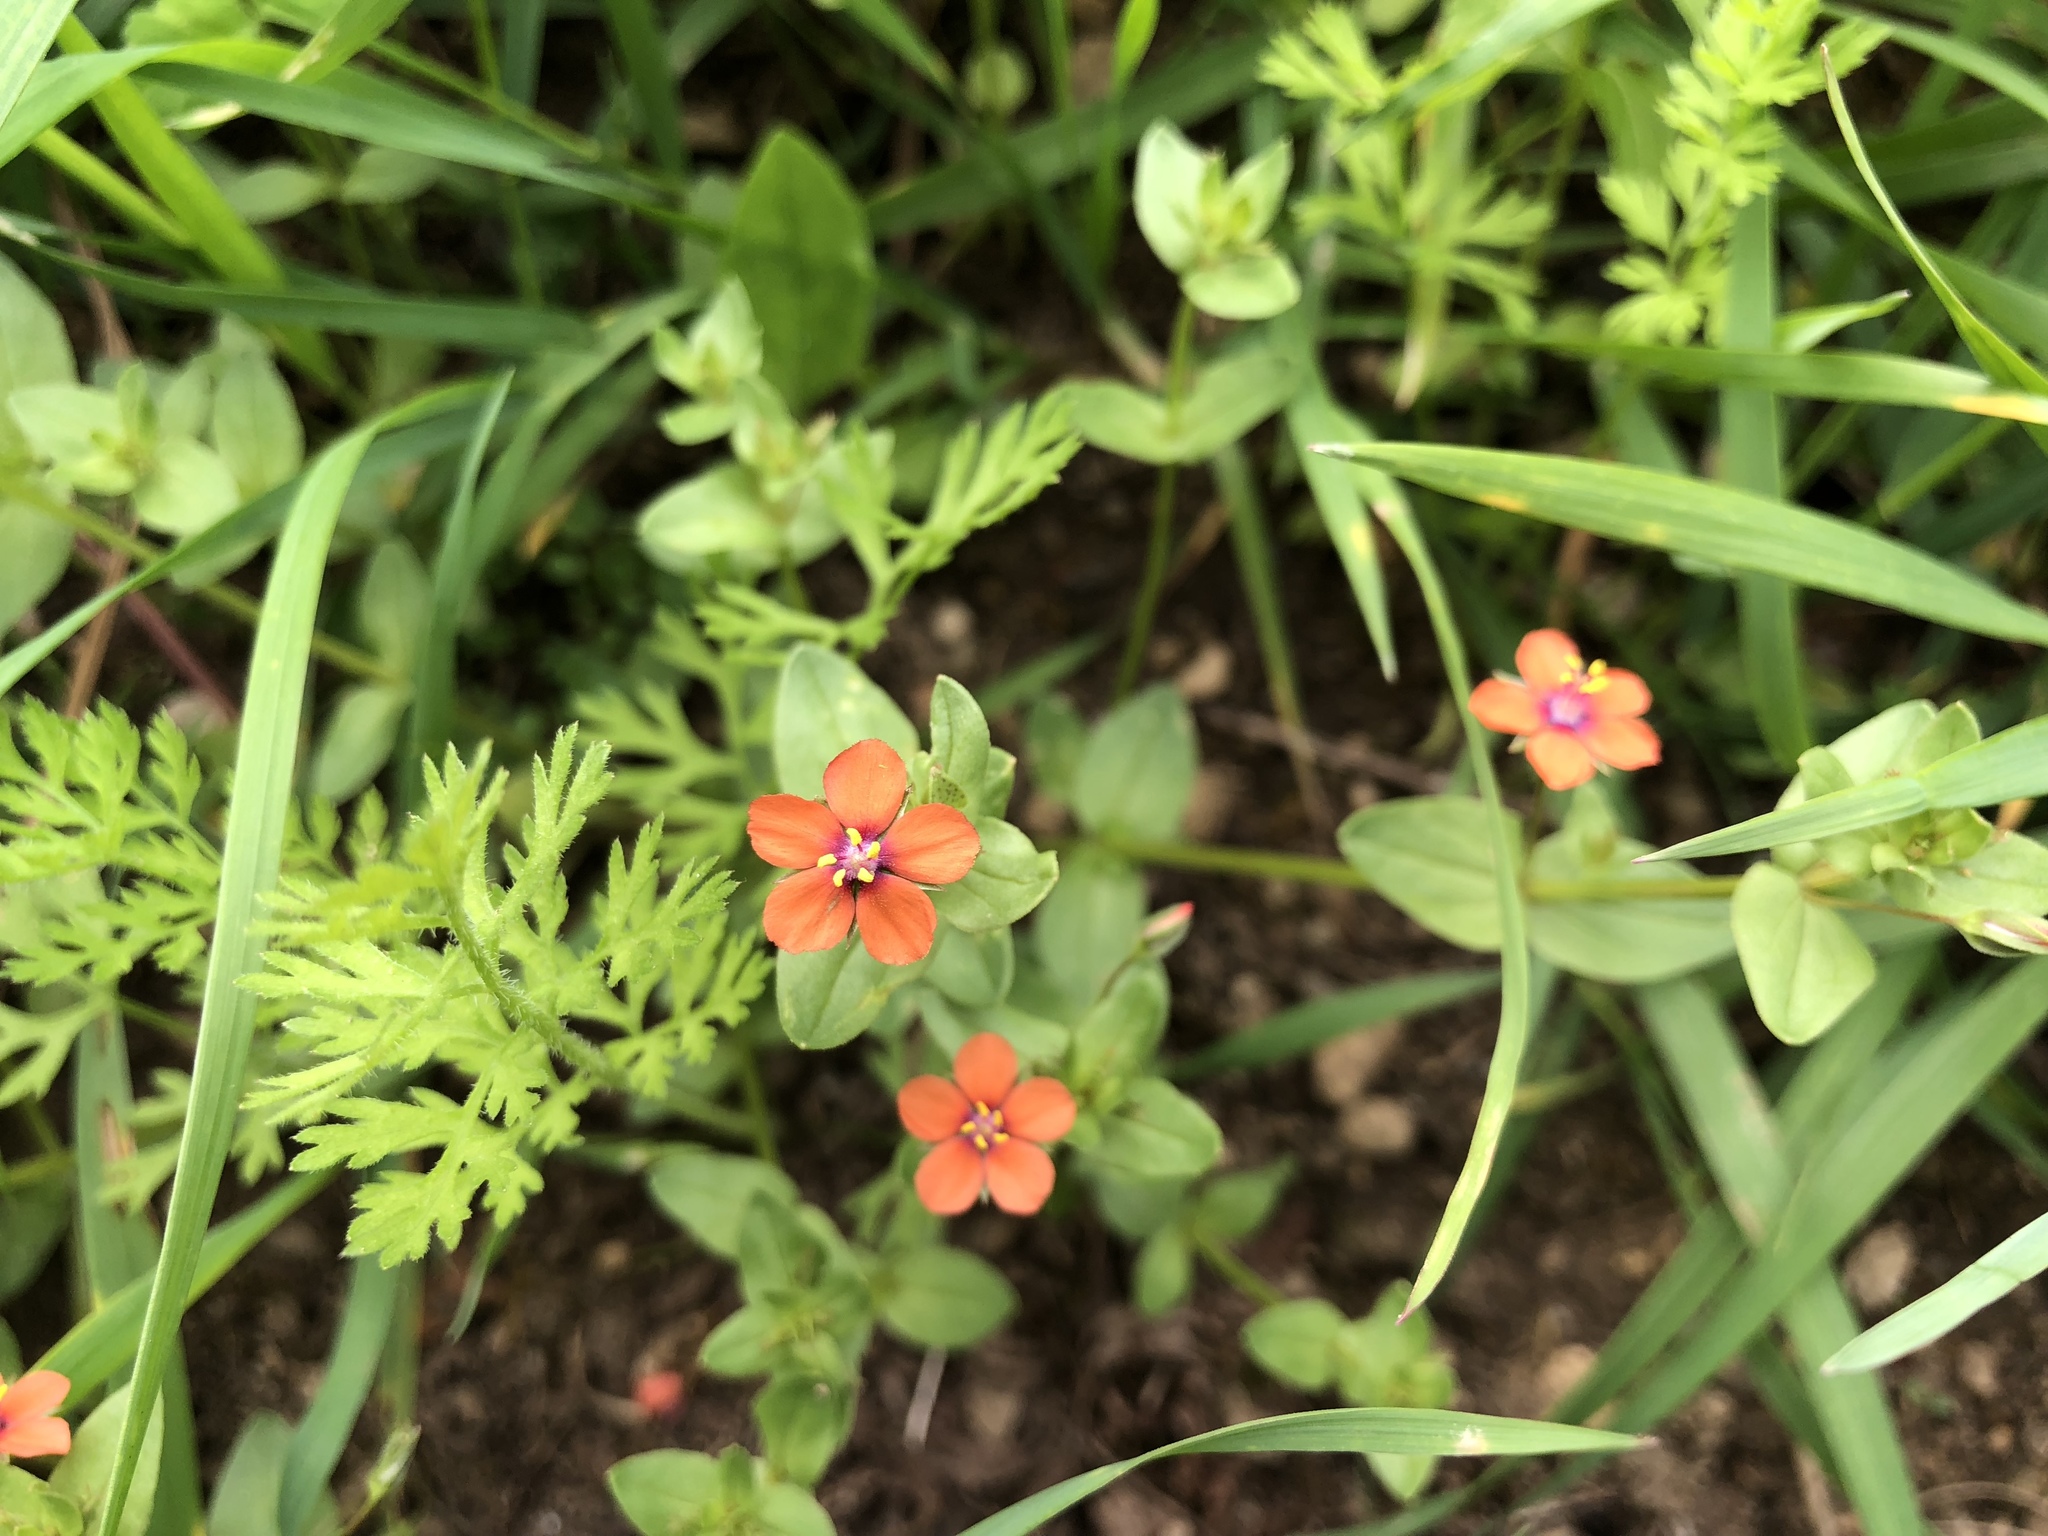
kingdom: Plantae
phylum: Tracheophyta
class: Magnoliopsida
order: Ericales
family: Primulaceae
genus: Lysimachia
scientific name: Lysimachia arvensis
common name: Scarlet pimpernel
